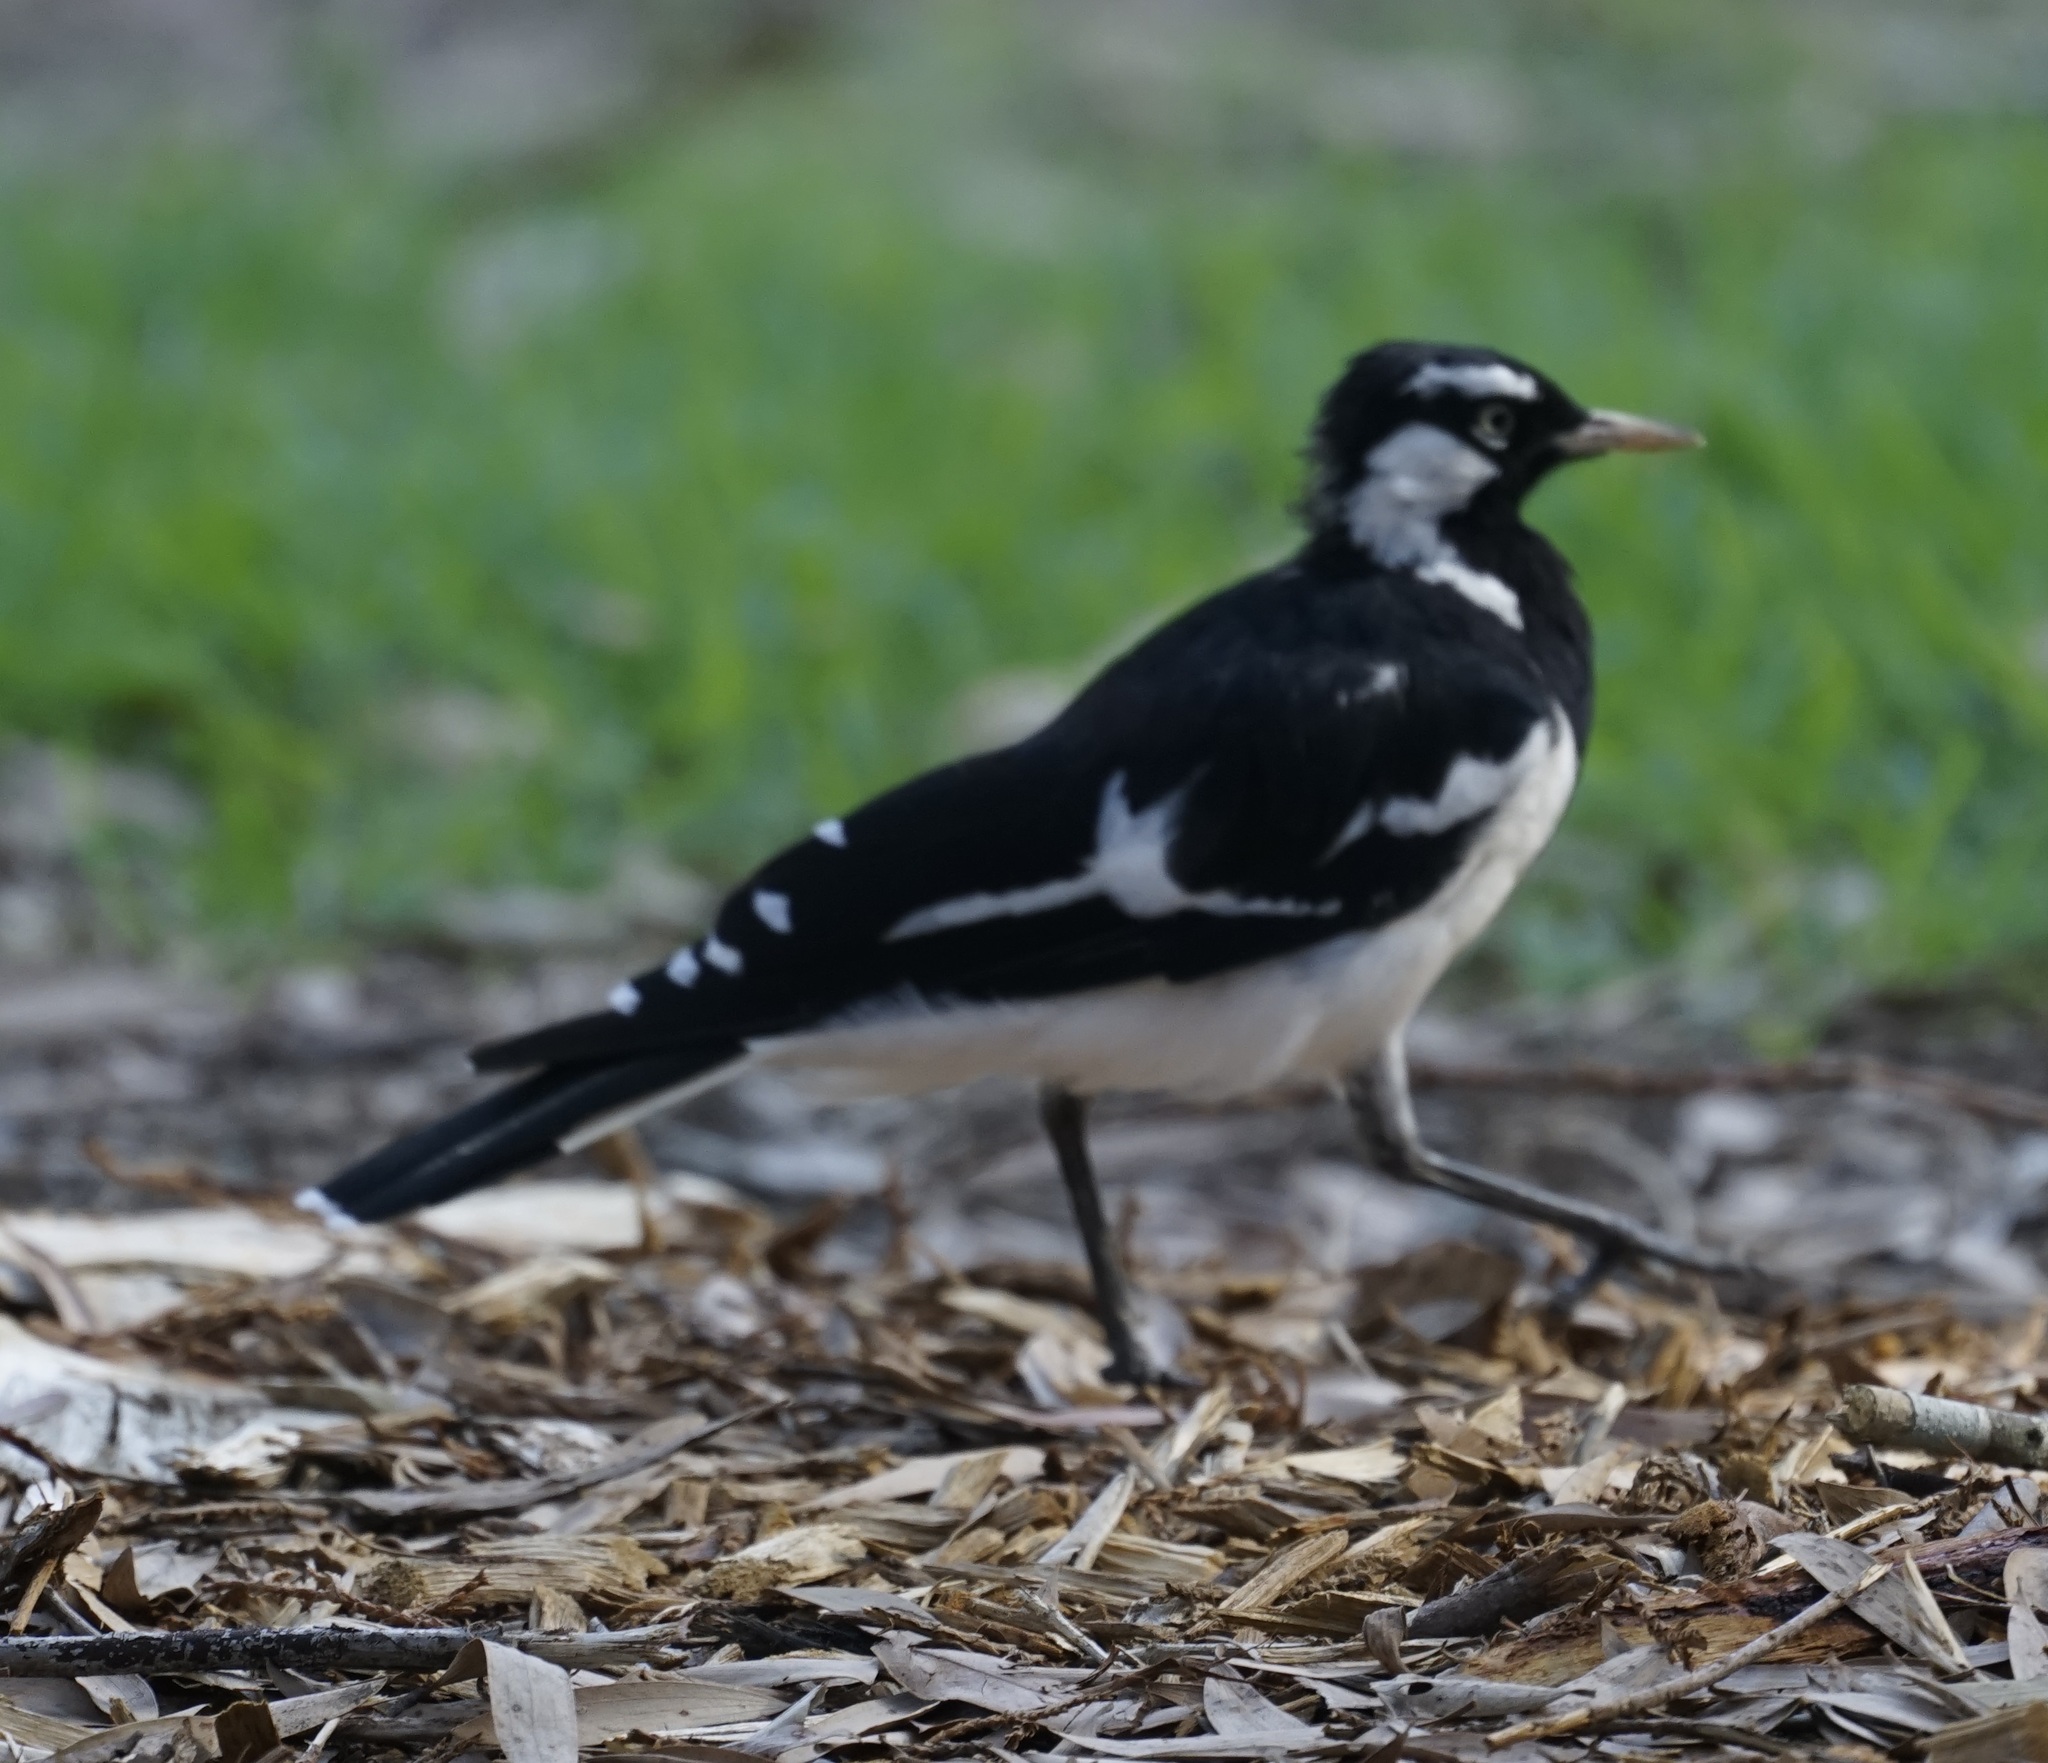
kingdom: Animalia
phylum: Chordata
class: Aves
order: Passeriformes
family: Monarchidae
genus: Grallina
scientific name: Grallina cyanoleuca
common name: Magpie-lark
